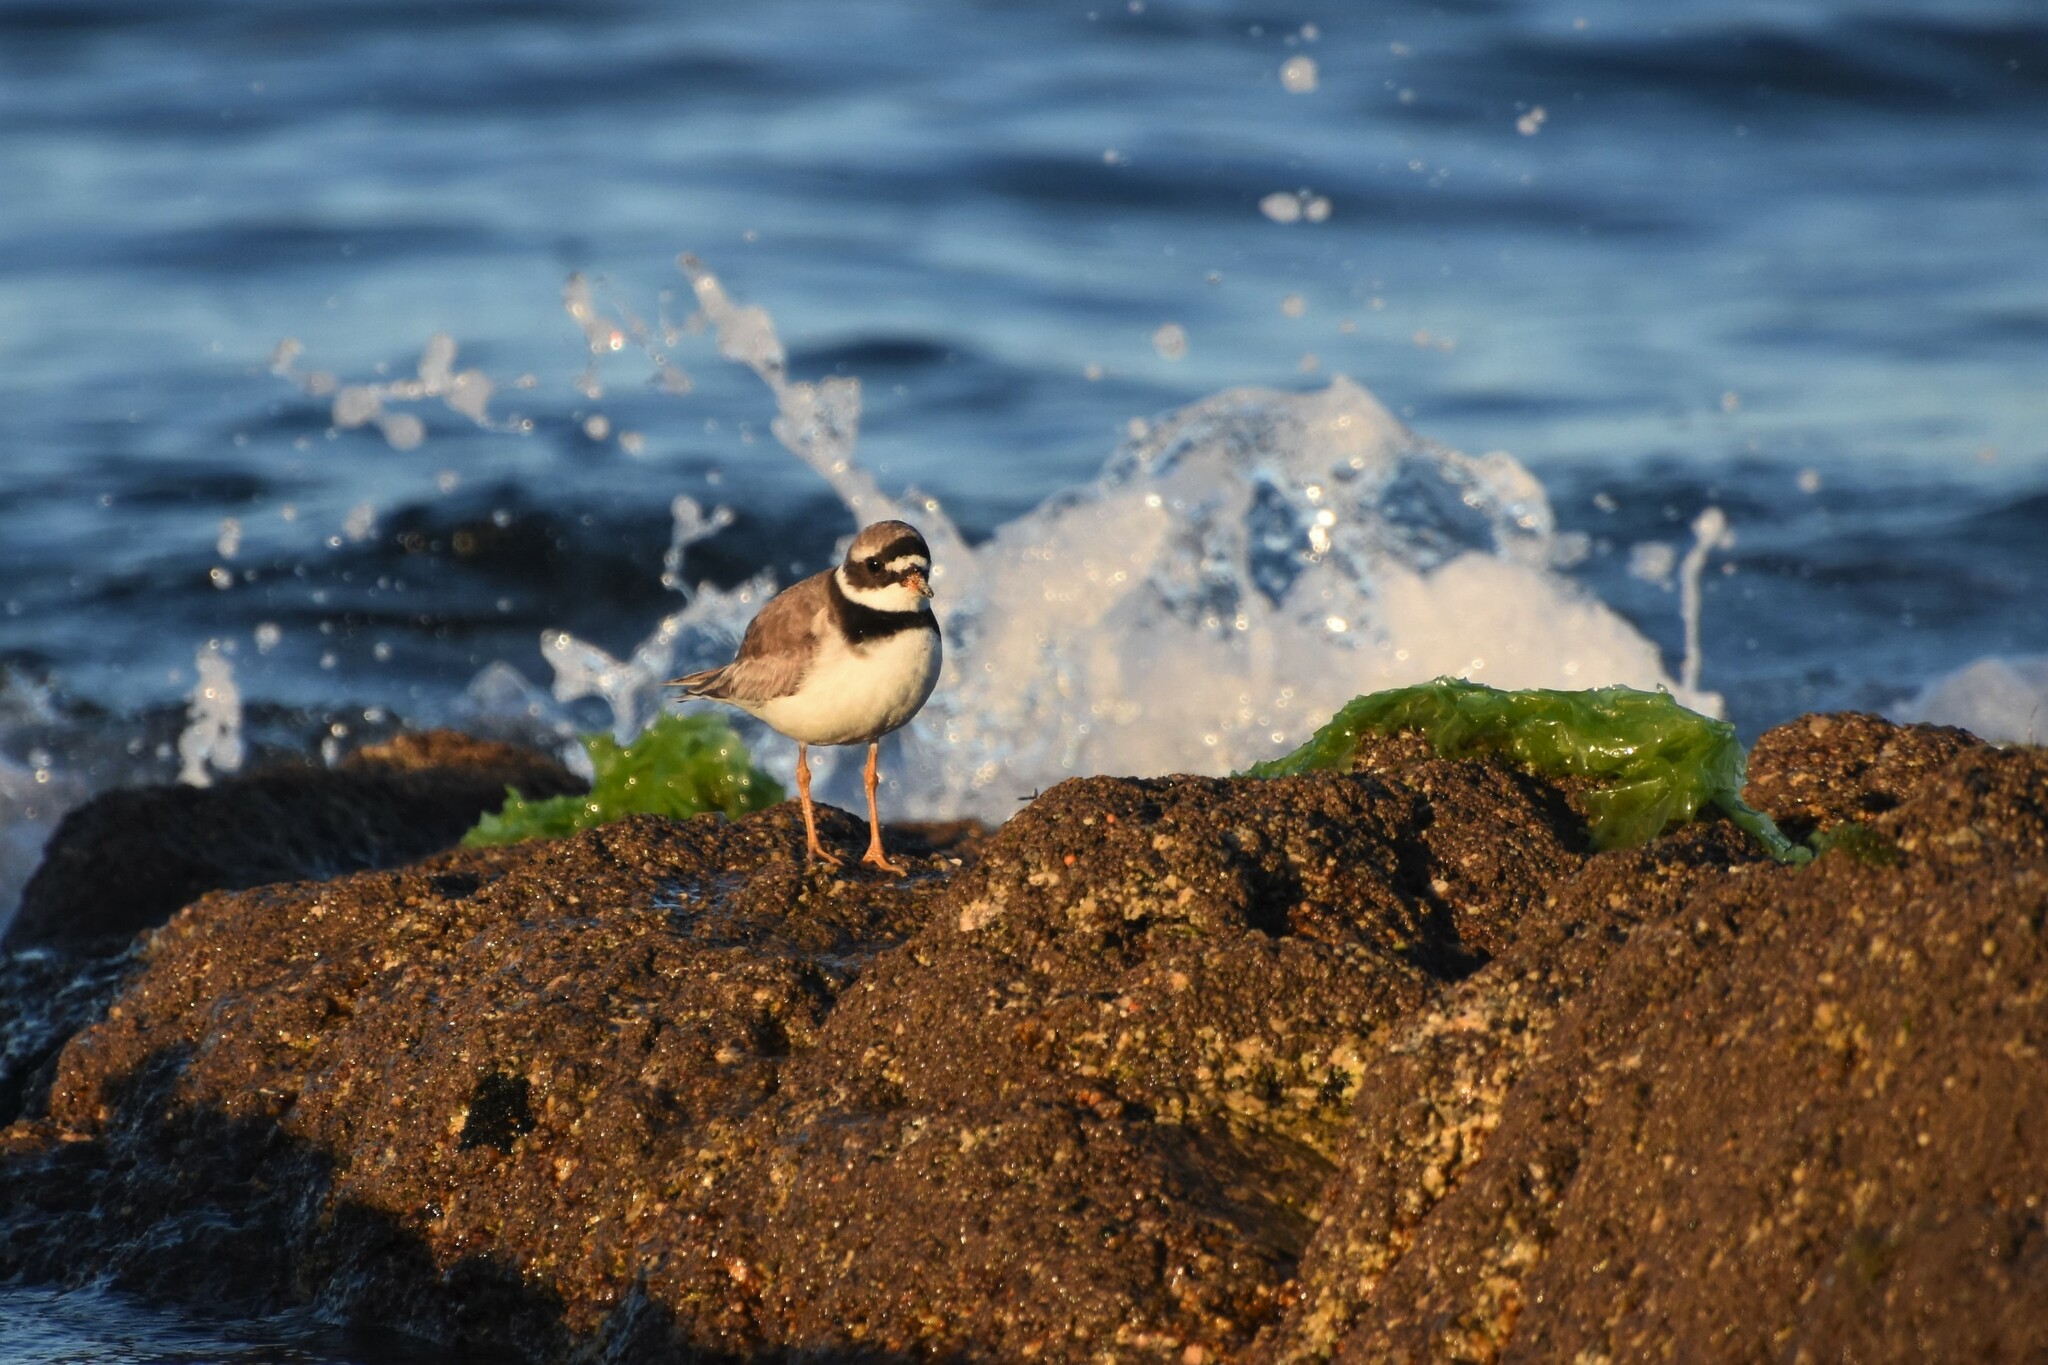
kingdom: Animalia
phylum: Chordata
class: Aves
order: Charadriiformes
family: Charadriidae
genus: Charadrius
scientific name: Charadrius hiaticula
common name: Common ringed plover
